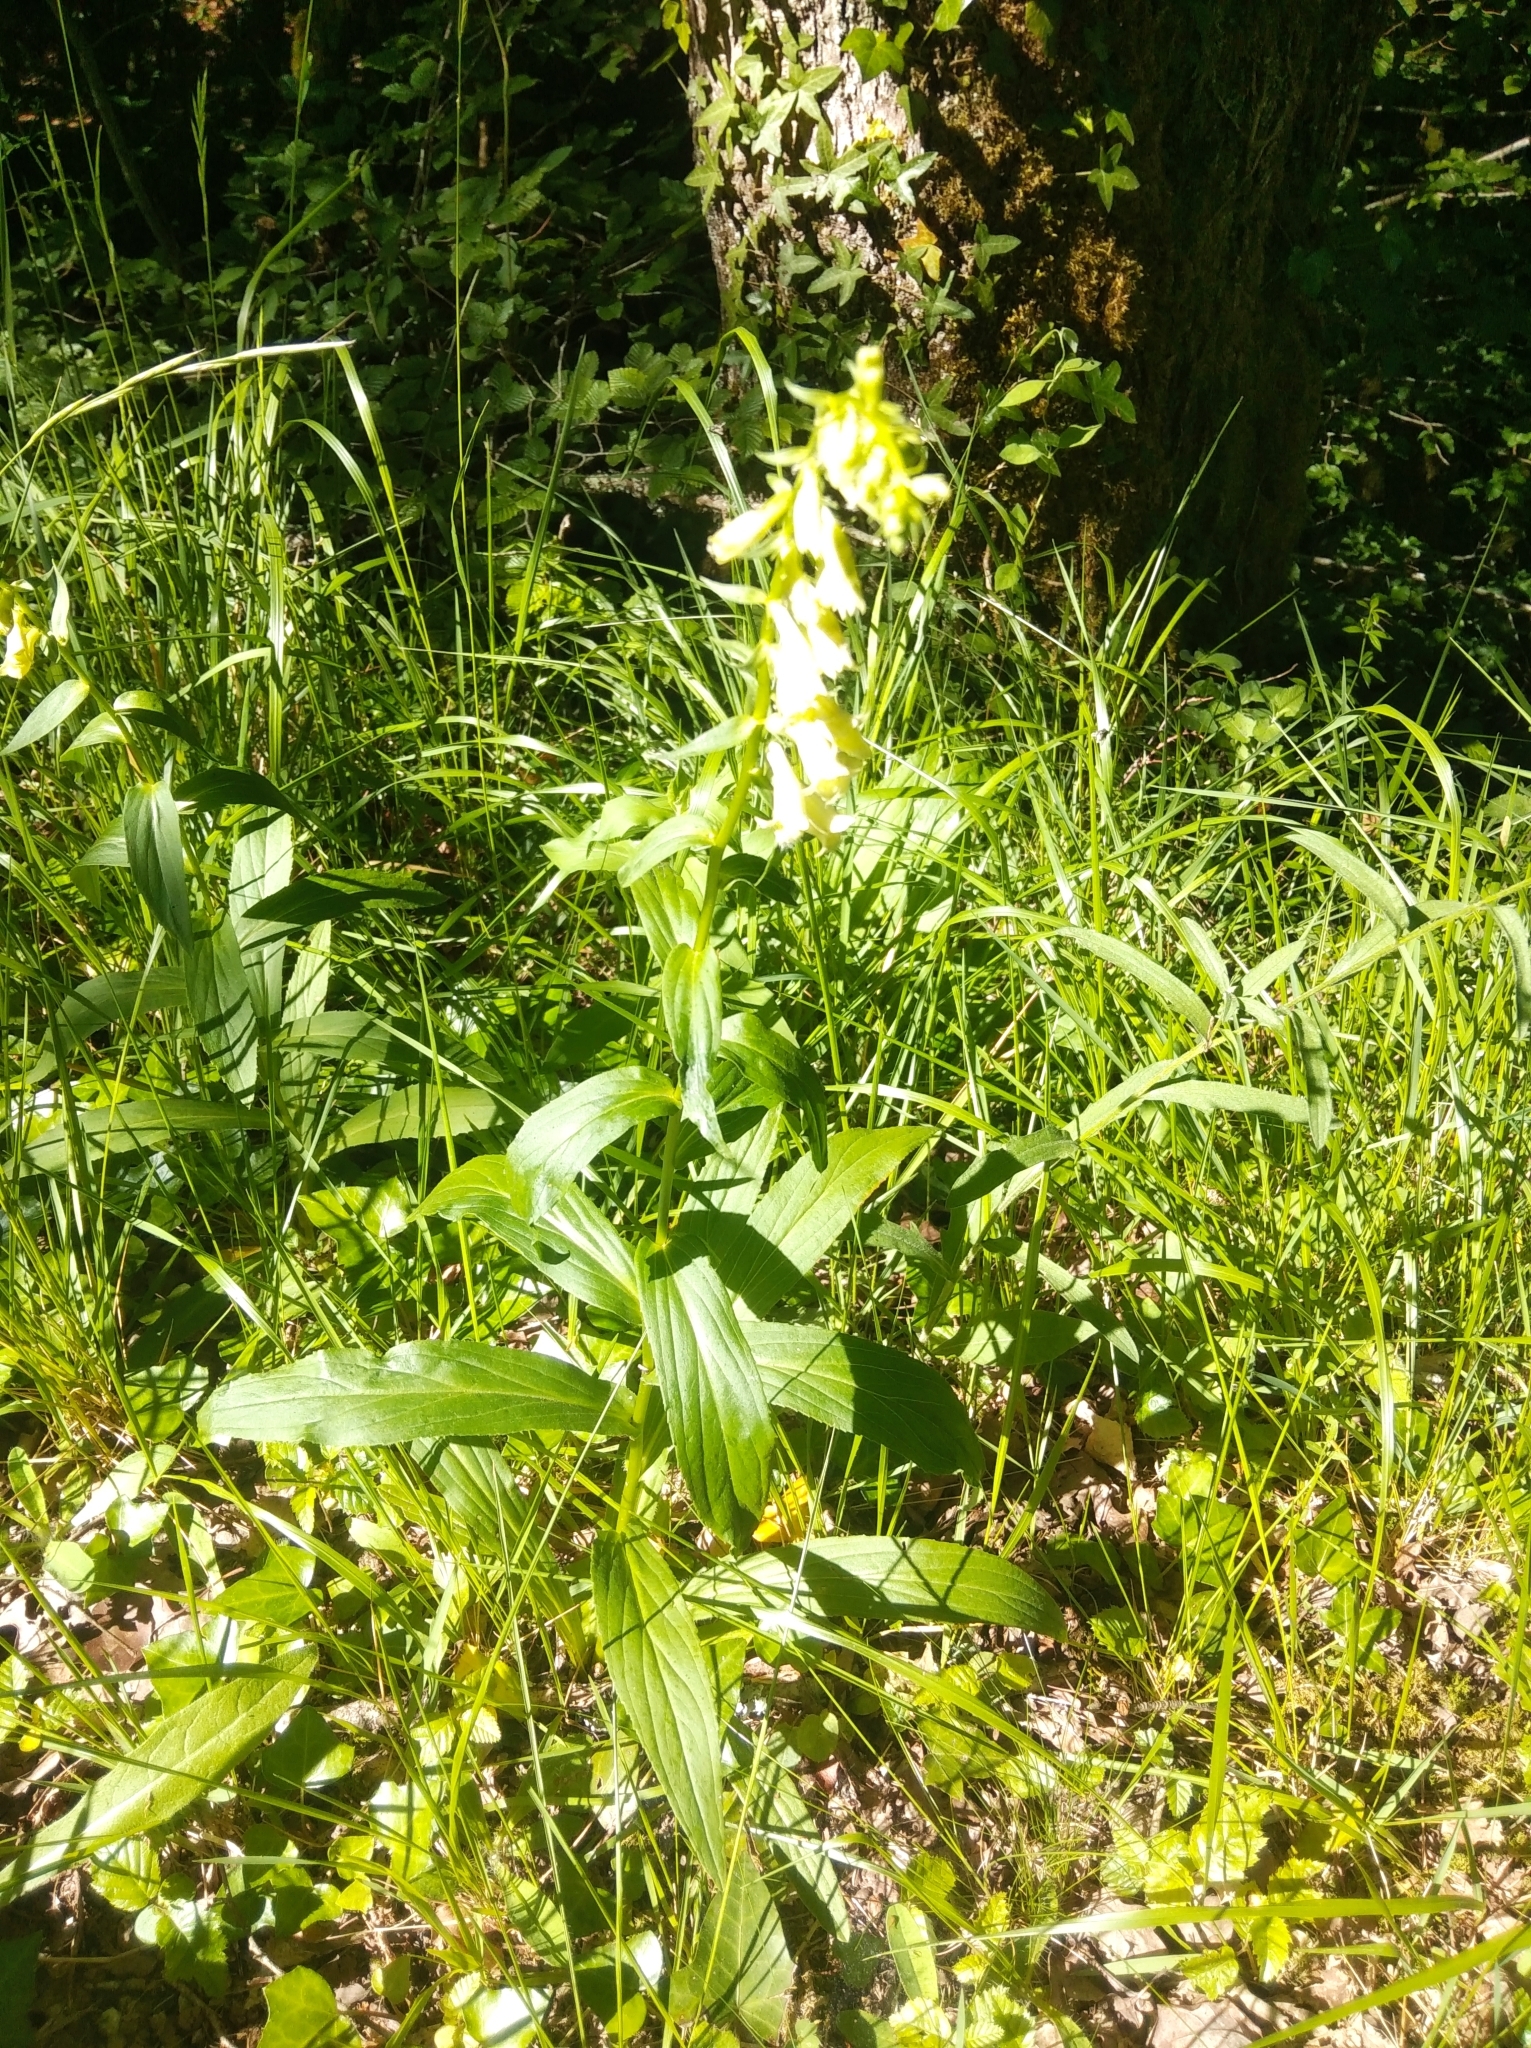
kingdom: Plantae
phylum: Tracheophyta
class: Magnoliopsida
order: Lamiales
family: Plantaginaceae
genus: Digitalis
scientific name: Digitalis lutea
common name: Straw foxglove
